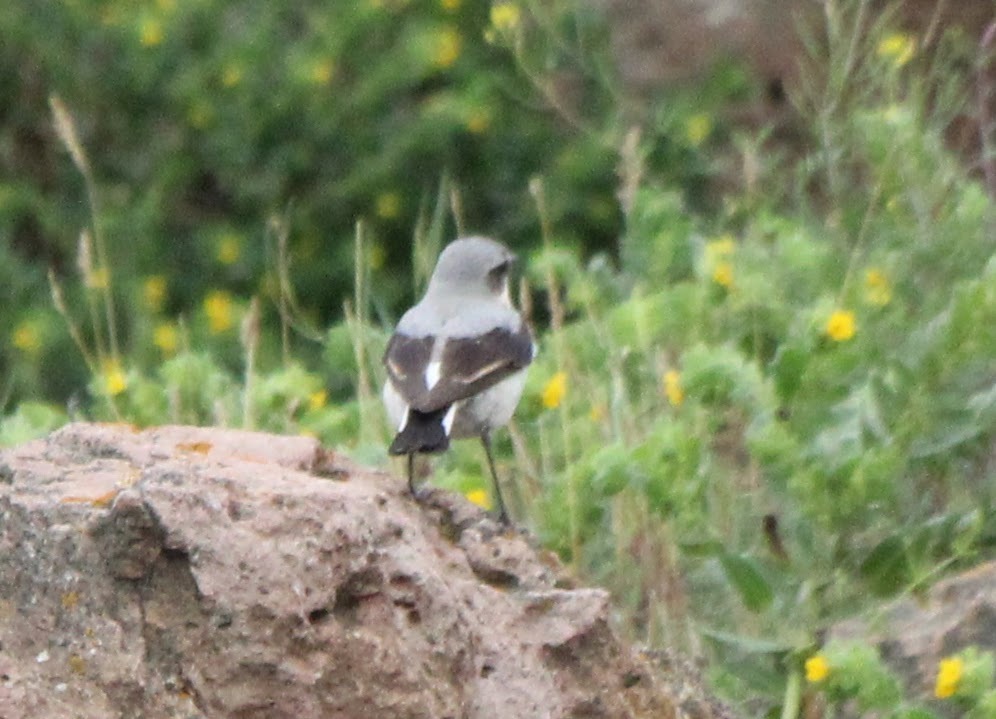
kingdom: Animalia
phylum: Chordata
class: Aves
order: Passeriformes
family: Muscicapidae
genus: Oenanthe
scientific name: Oenanthe oenanthe
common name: Northern wheatear
